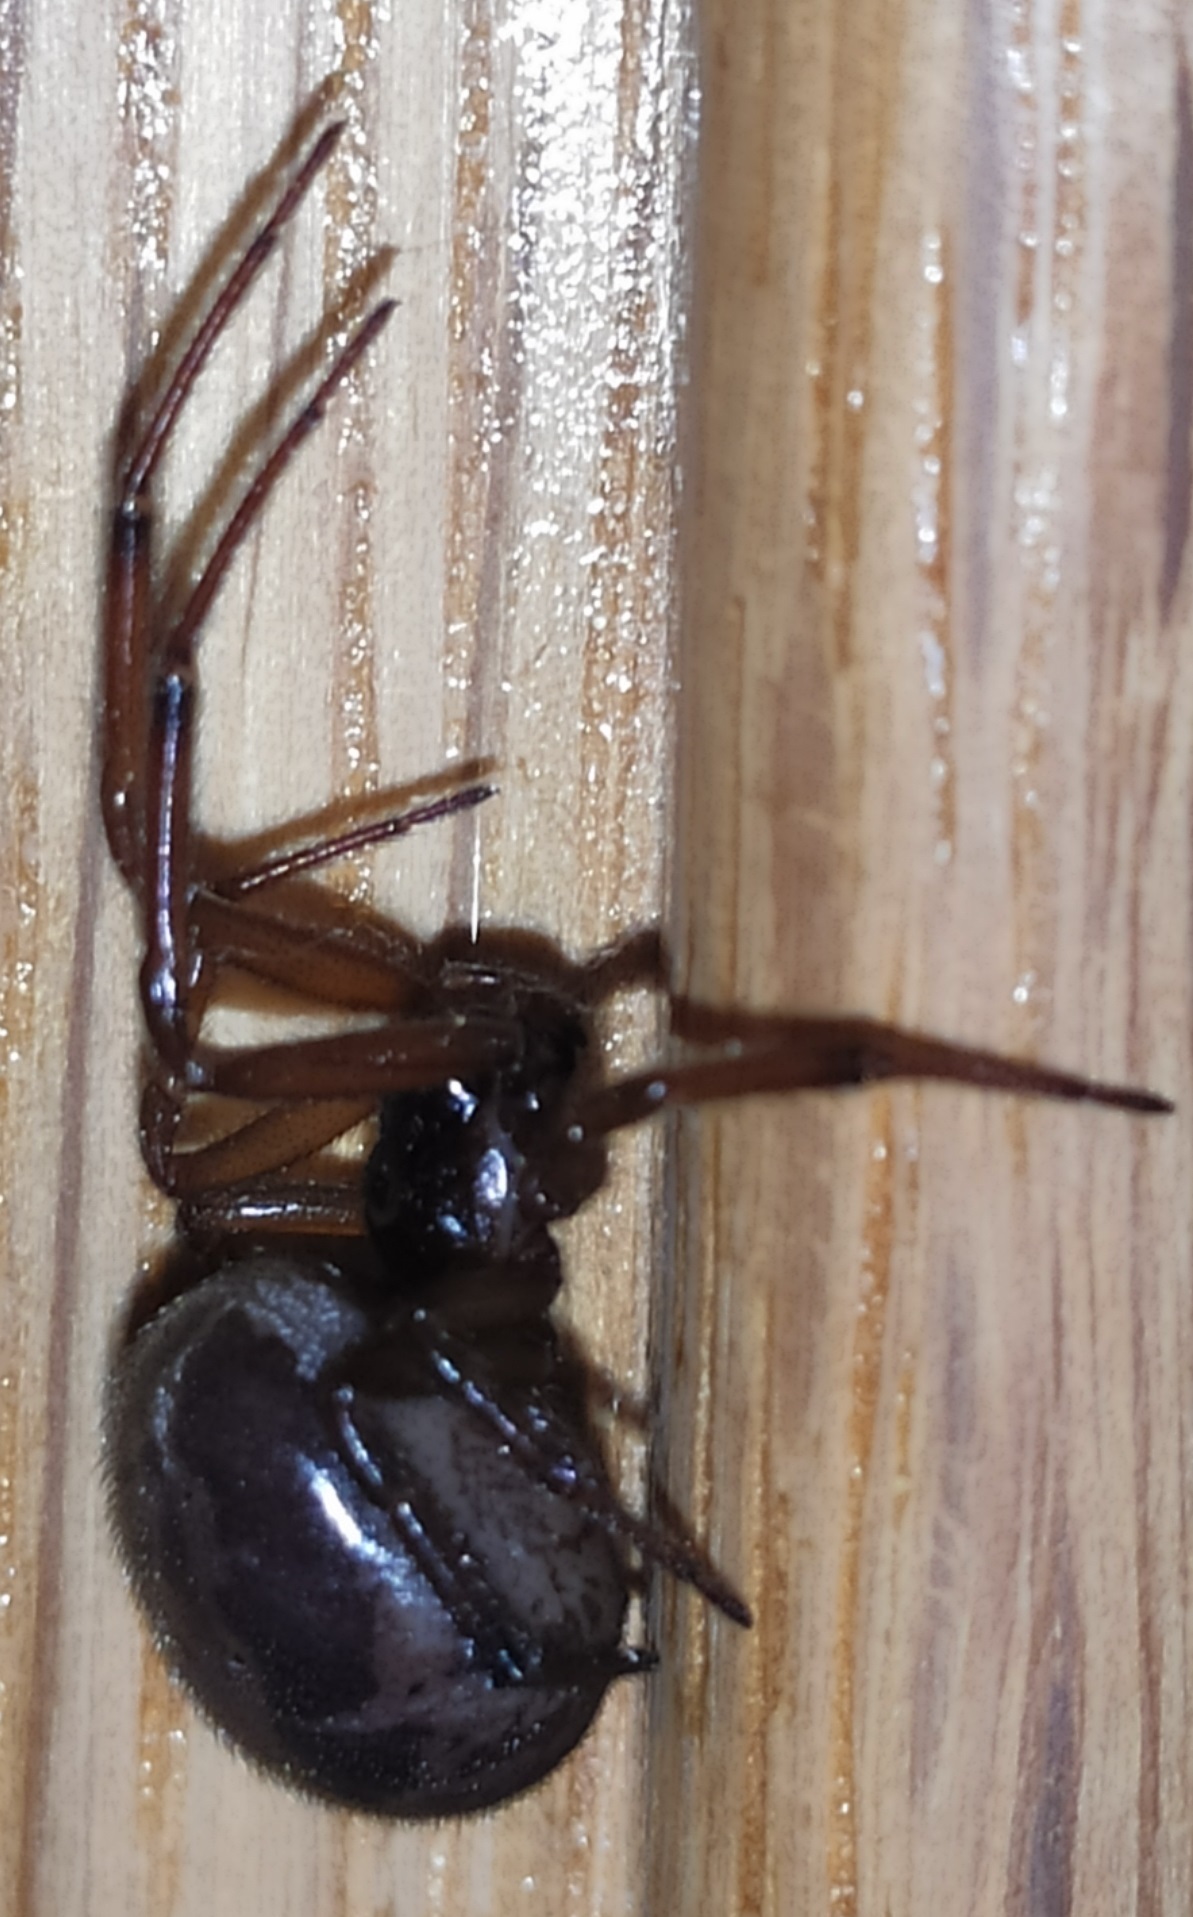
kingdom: Animalia
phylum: Arthropoda
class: Arachnida
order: Araneae
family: Theridiidae
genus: Steatoda
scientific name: Steatoda nobilis
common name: Cobweb weaver
